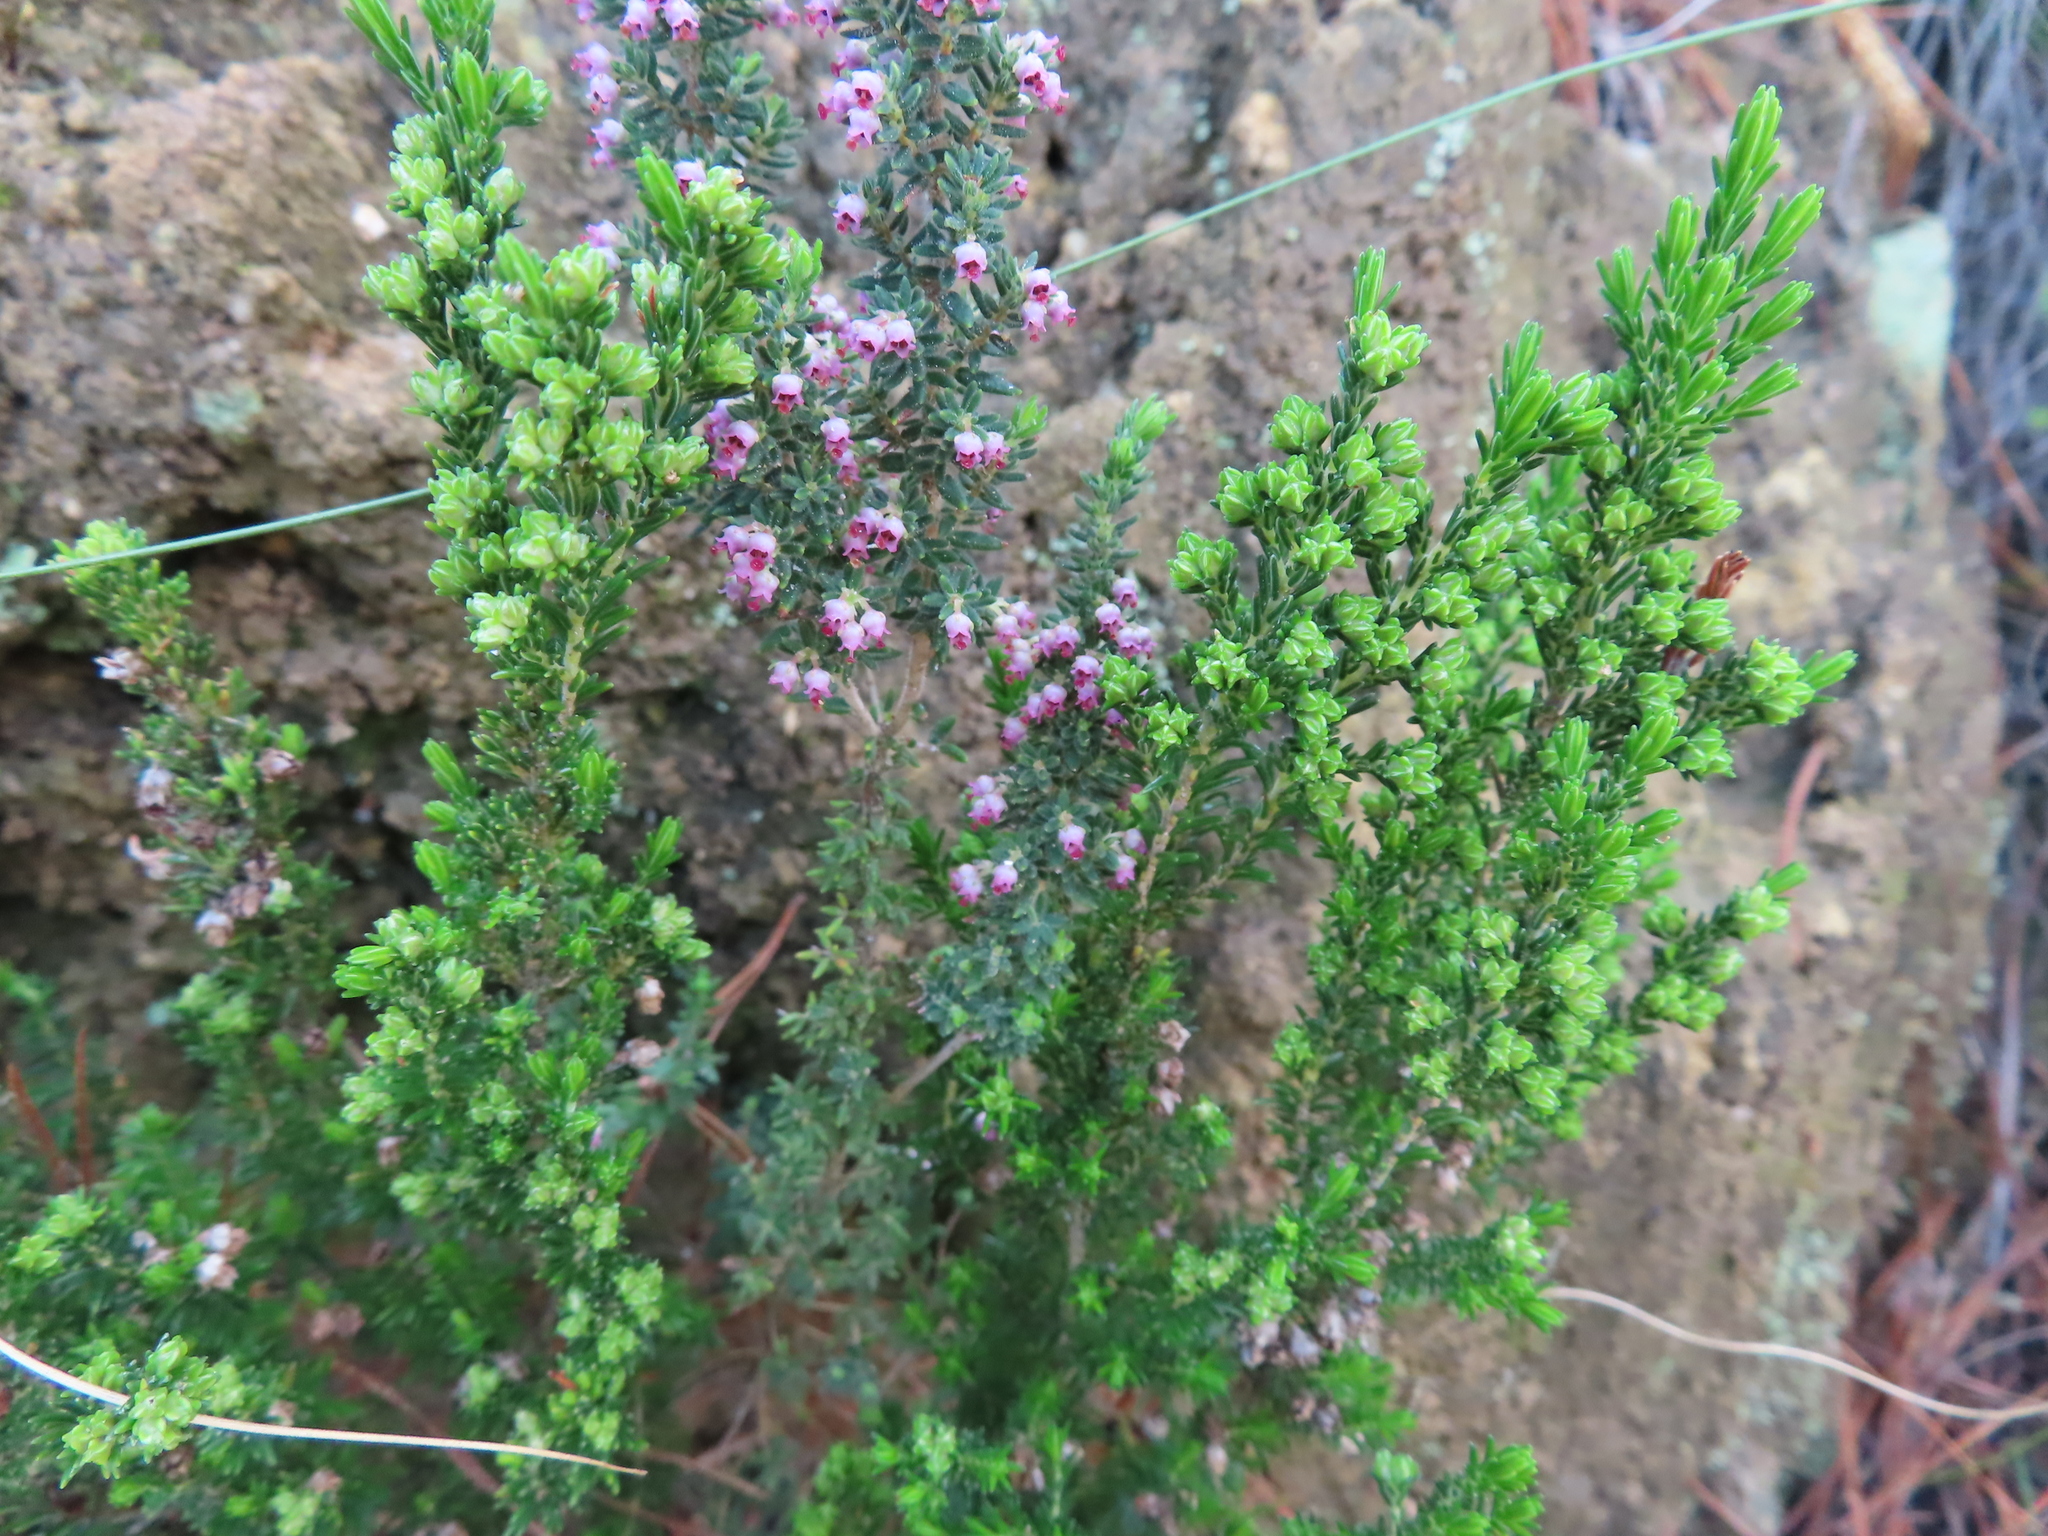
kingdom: Plantae
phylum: Tracheophyta
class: Magnoliopsida
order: Ericales
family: Ericaceae
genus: Erica
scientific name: Erica hispidula
